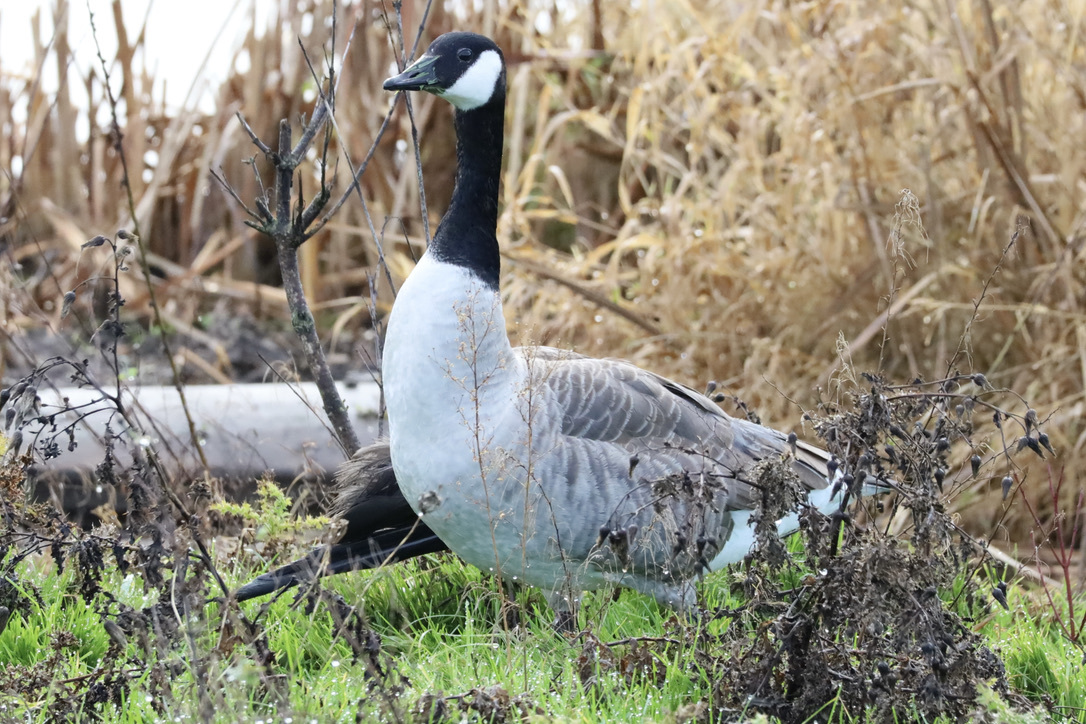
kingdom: Animalia
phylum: Chordata
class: Aves
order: Anseriformes
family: Anatidae
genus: Branta
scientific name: Branta canadensis
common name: Canada goose
